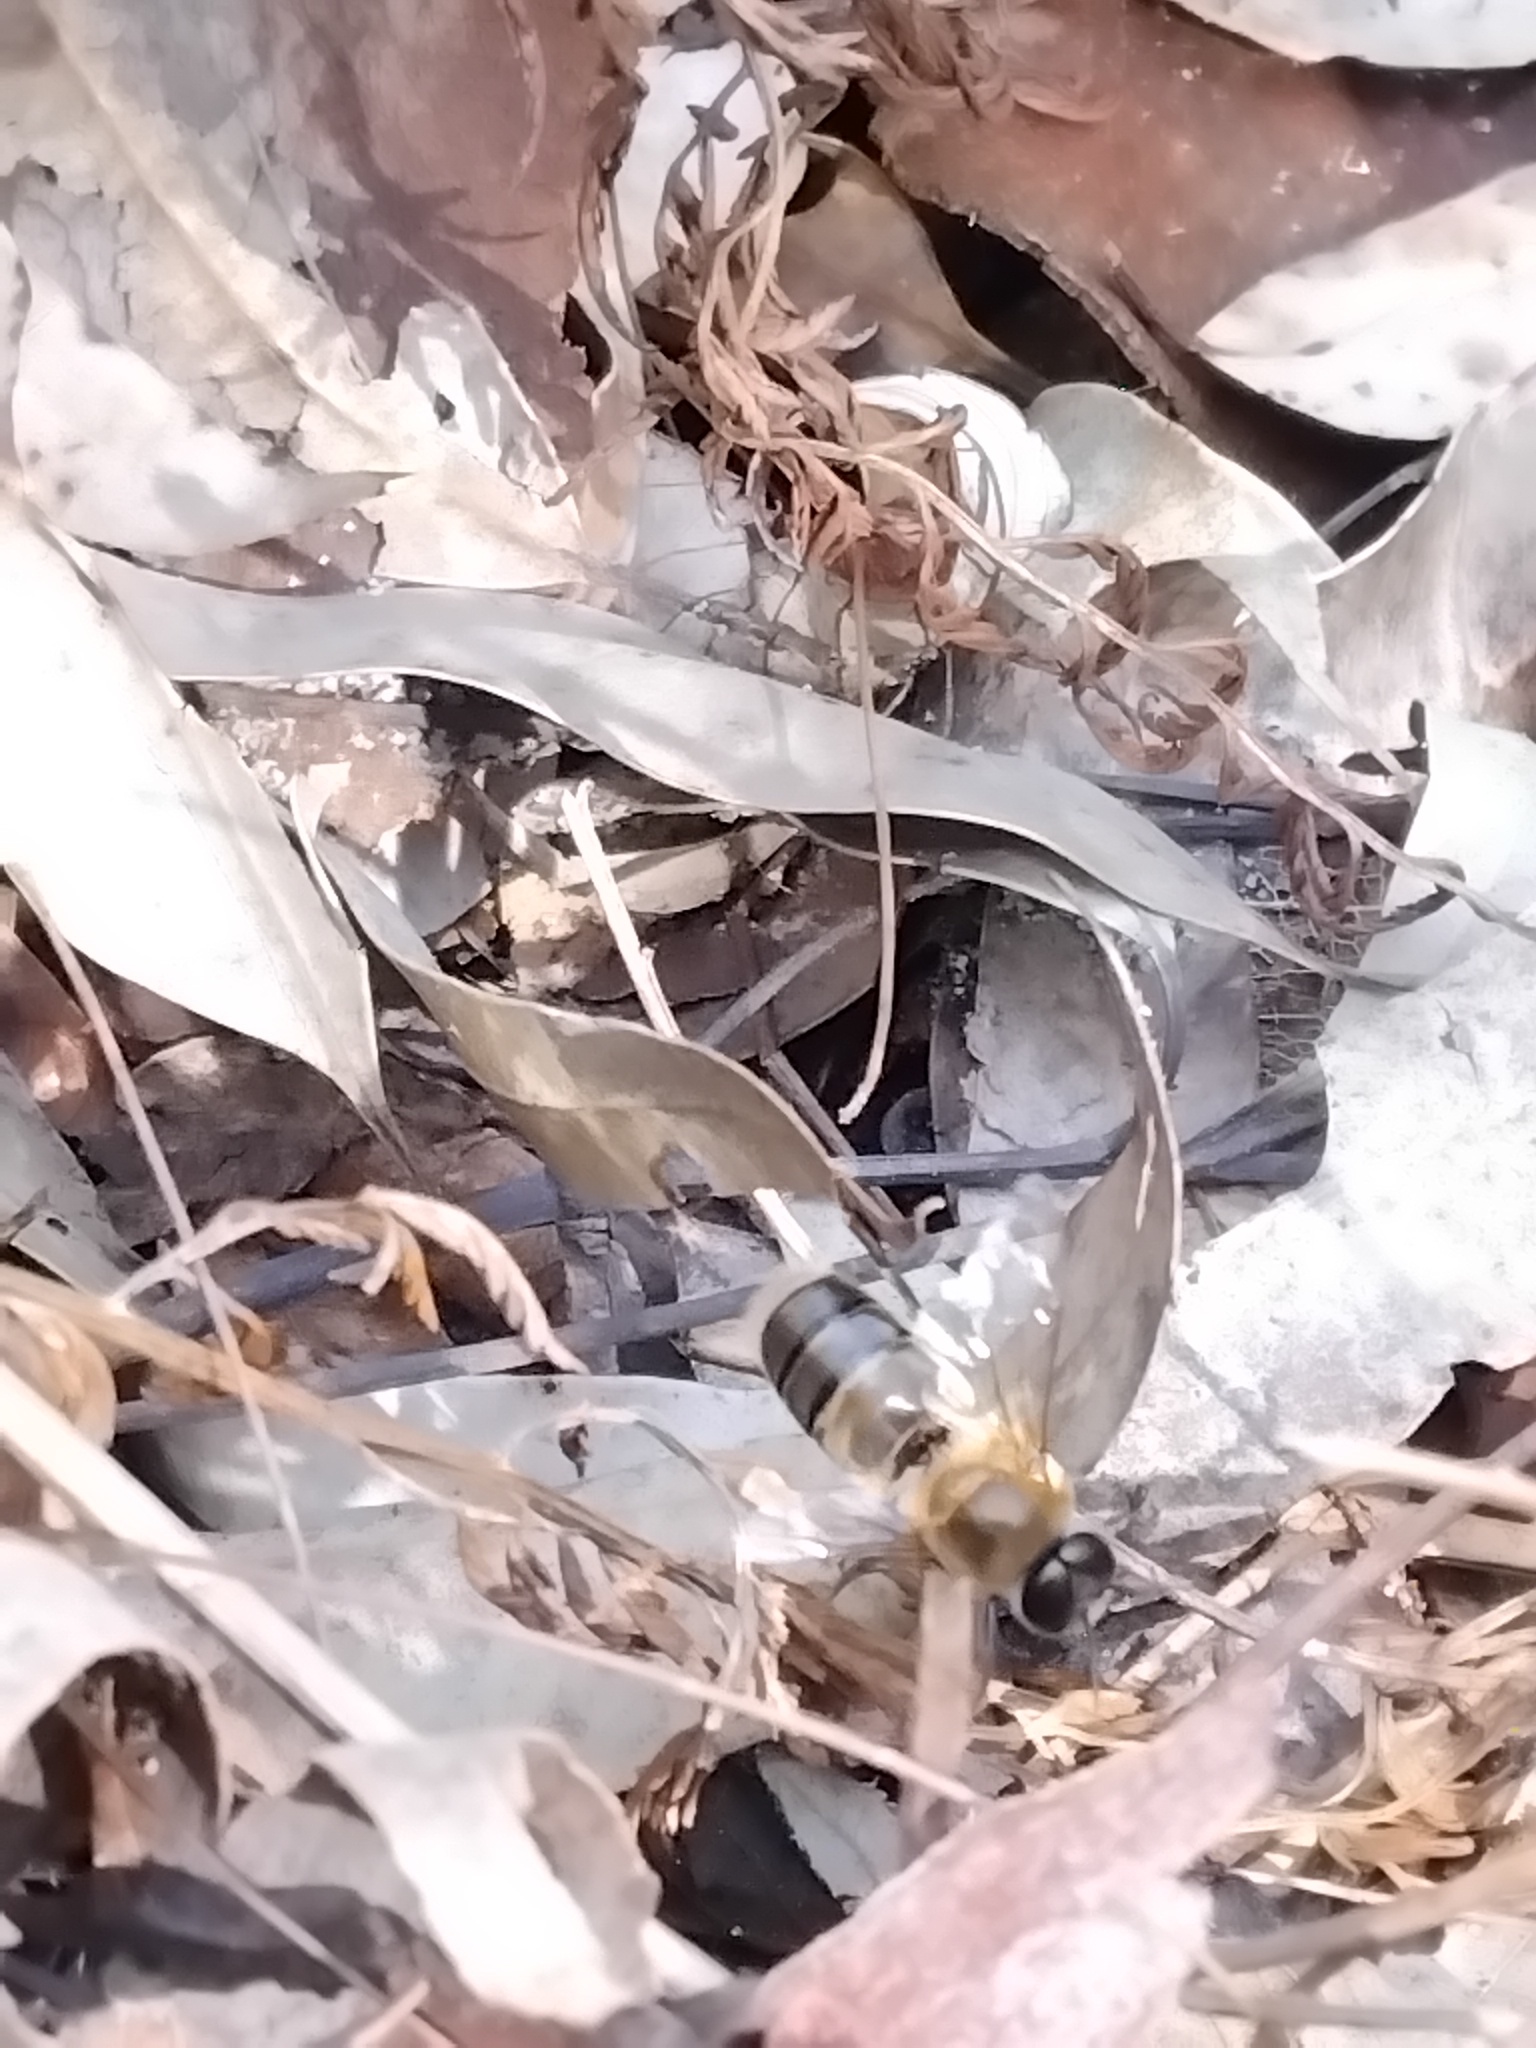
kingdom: Animalia
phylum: Arthropoda
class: Insecta
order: Hymenoptera
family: Apidae
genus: Apis
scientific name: Apis mellifera
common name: Honey bee
